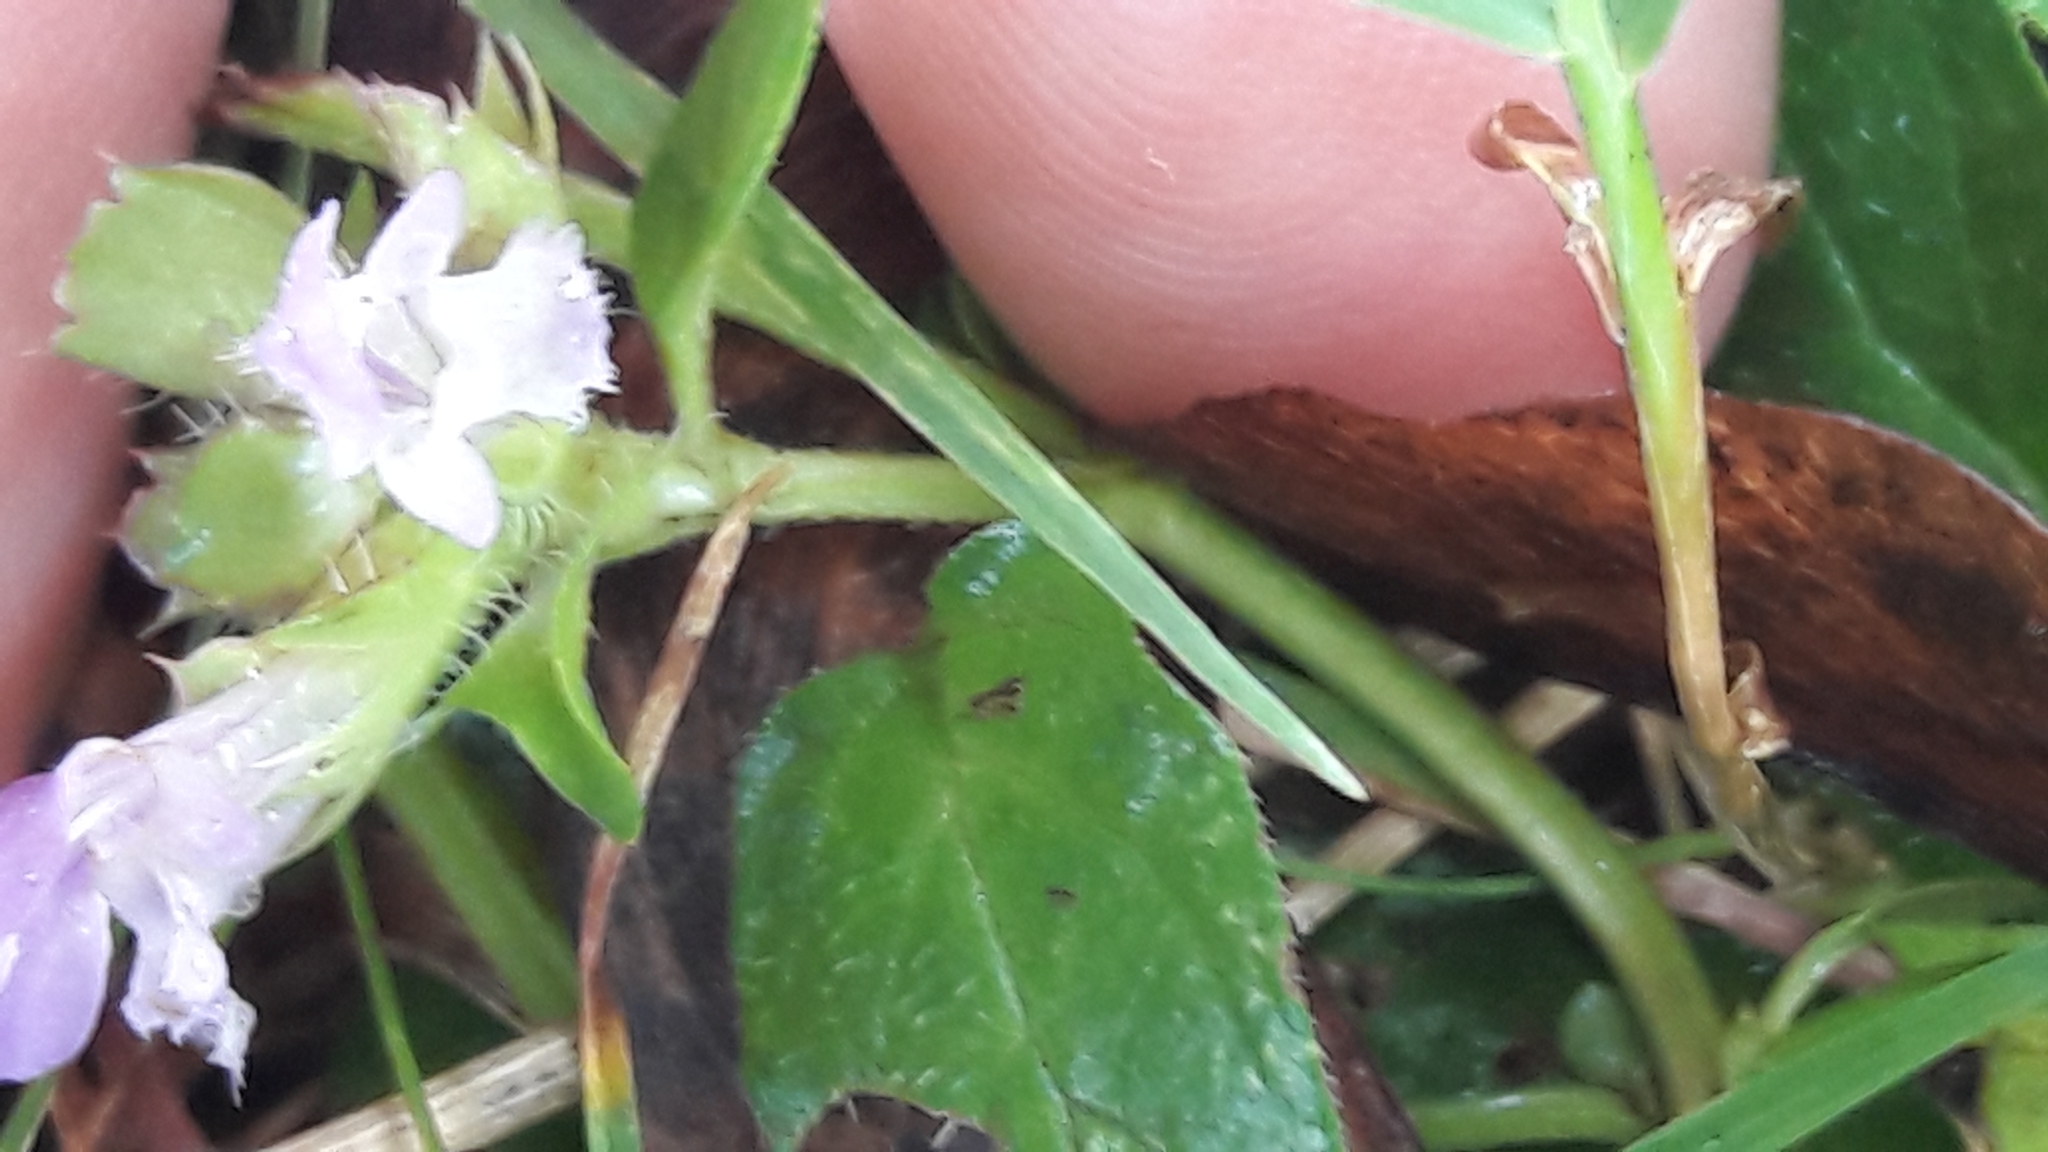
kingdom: Plantae
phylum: Tracheophyta
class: Magnoliopsida
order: Lamiales
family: Lamiaceae
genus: Prunella
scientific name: Prunella vulgaris
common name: Heal-all
